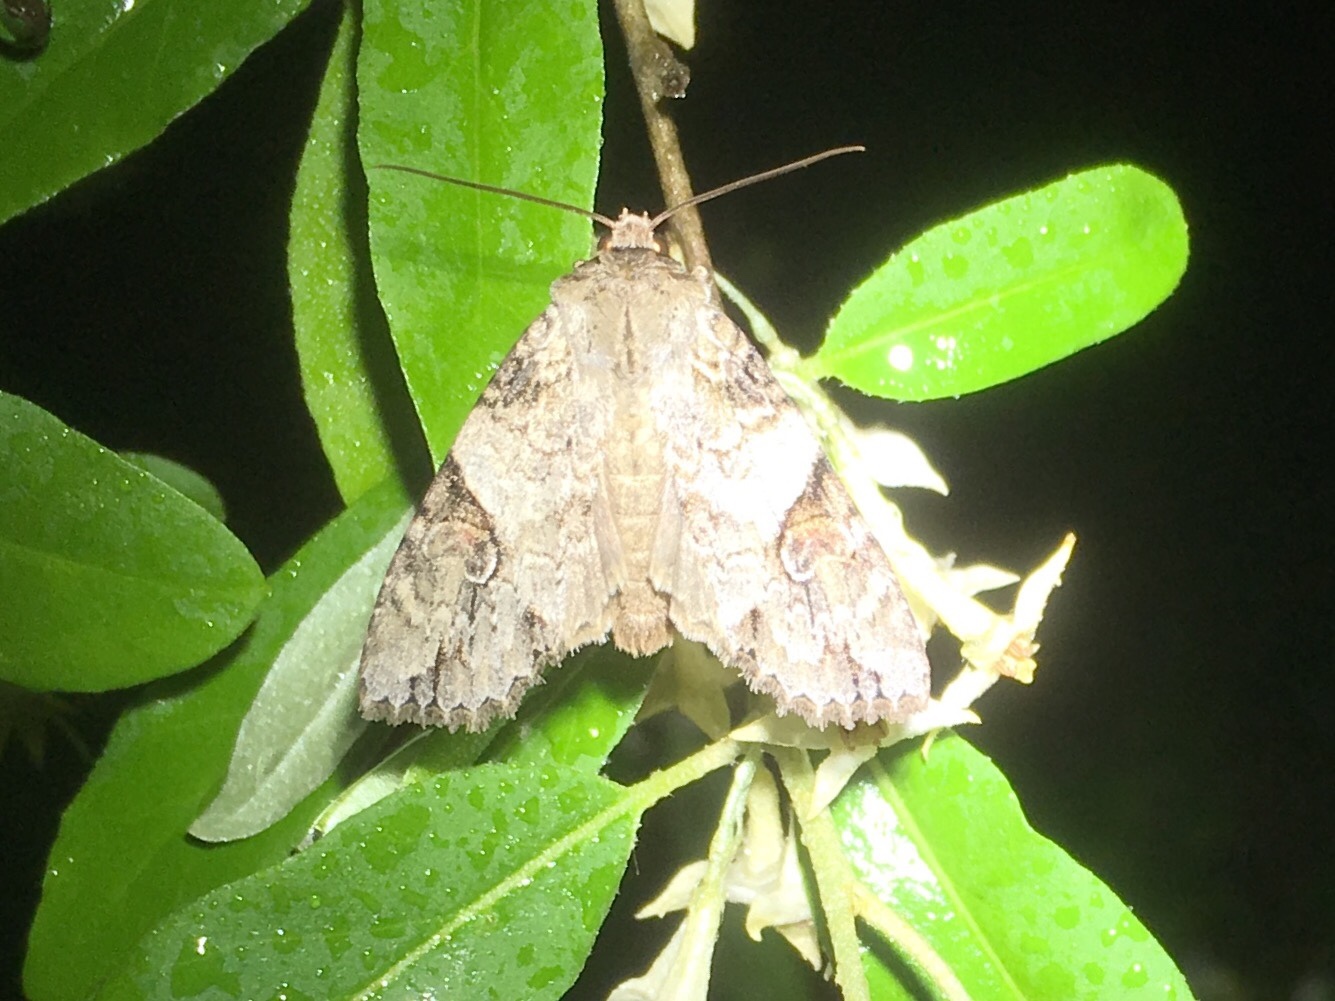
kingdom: Animalia
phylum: Arthropoda
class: Insecta
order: Lepidoptera
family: Noctuidae
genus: Achatia
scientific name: Achatia latex
